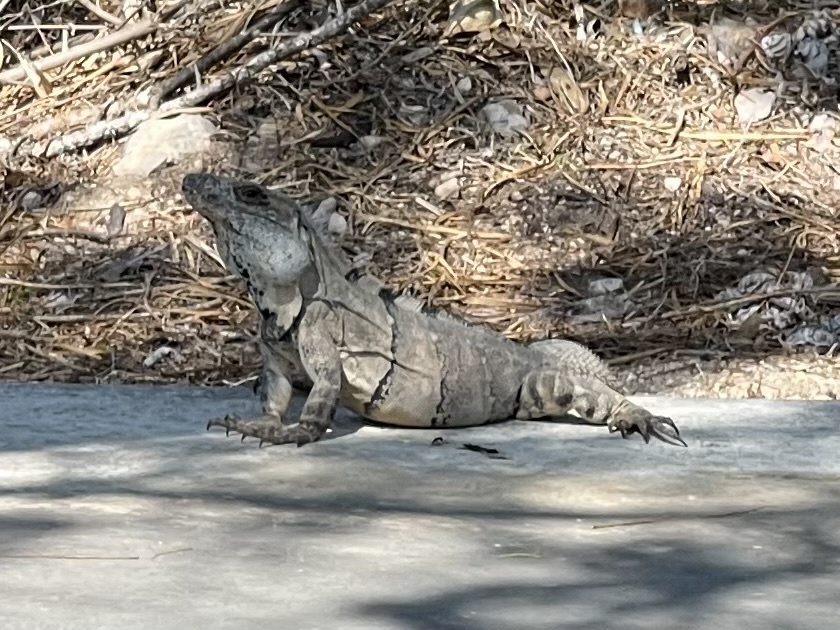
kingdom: Animalia
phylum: Chordata
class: Squamata
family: Iguanidae
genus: Ctenosaura
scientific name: Ctenosaura similis
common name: Black spiny-tailed iguana
